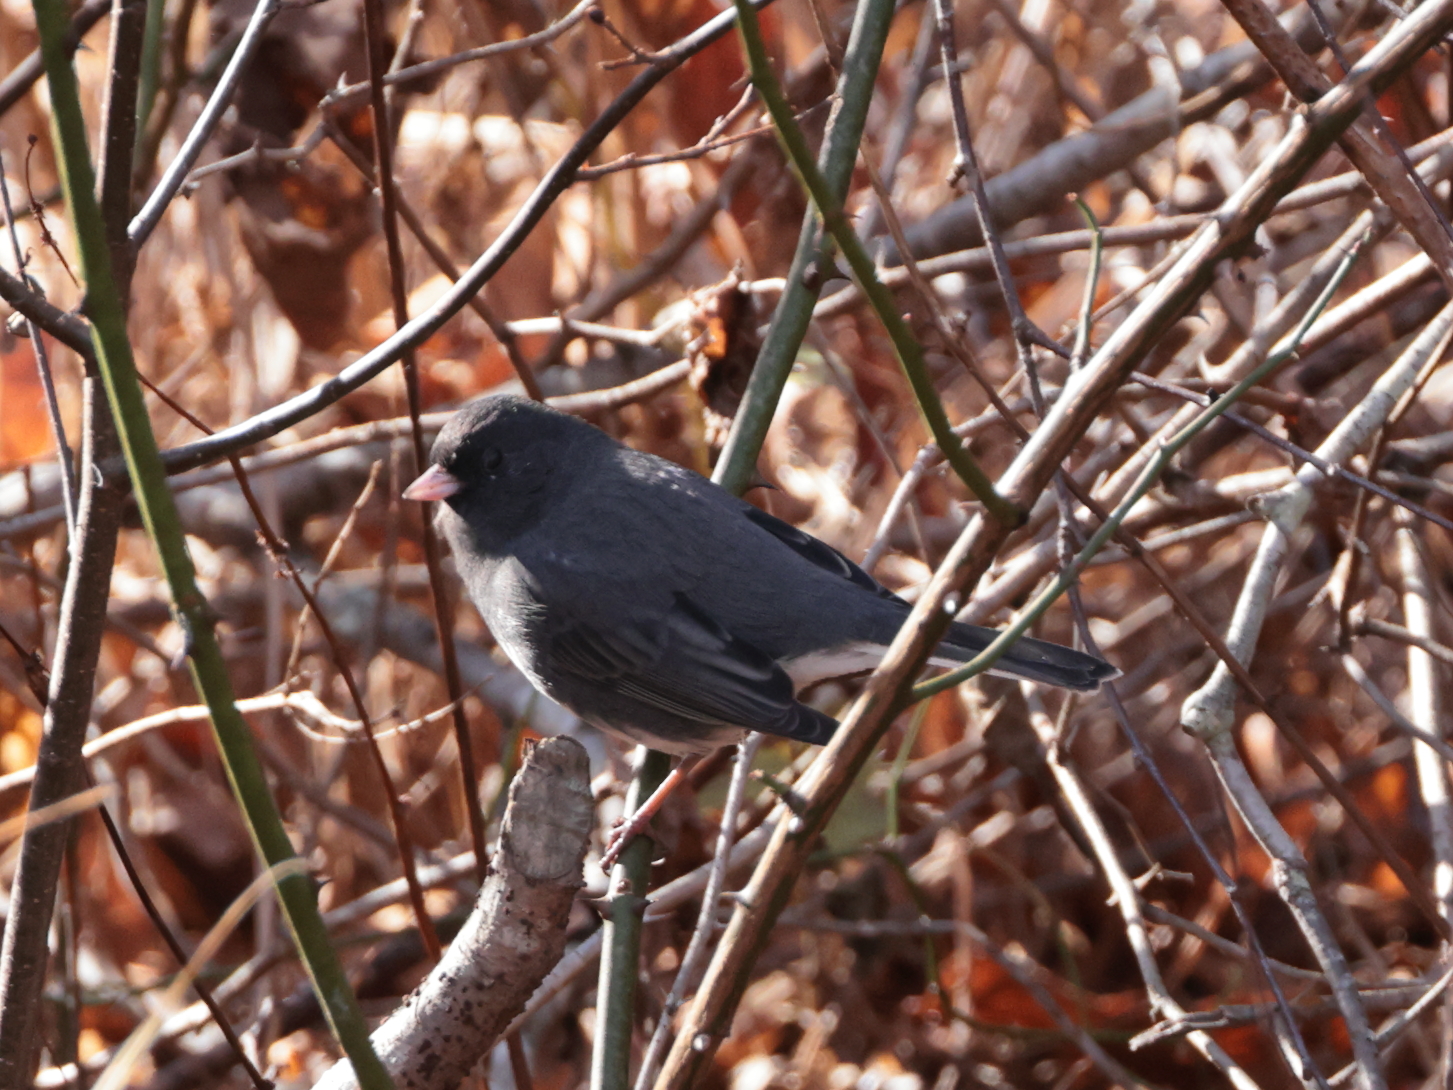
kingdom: Animalia
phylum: Chordata
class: Aves
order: Passeriformes
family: Passerellidae
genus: Junco
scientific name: Junco hyemalis
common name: Dark-eyed junco
